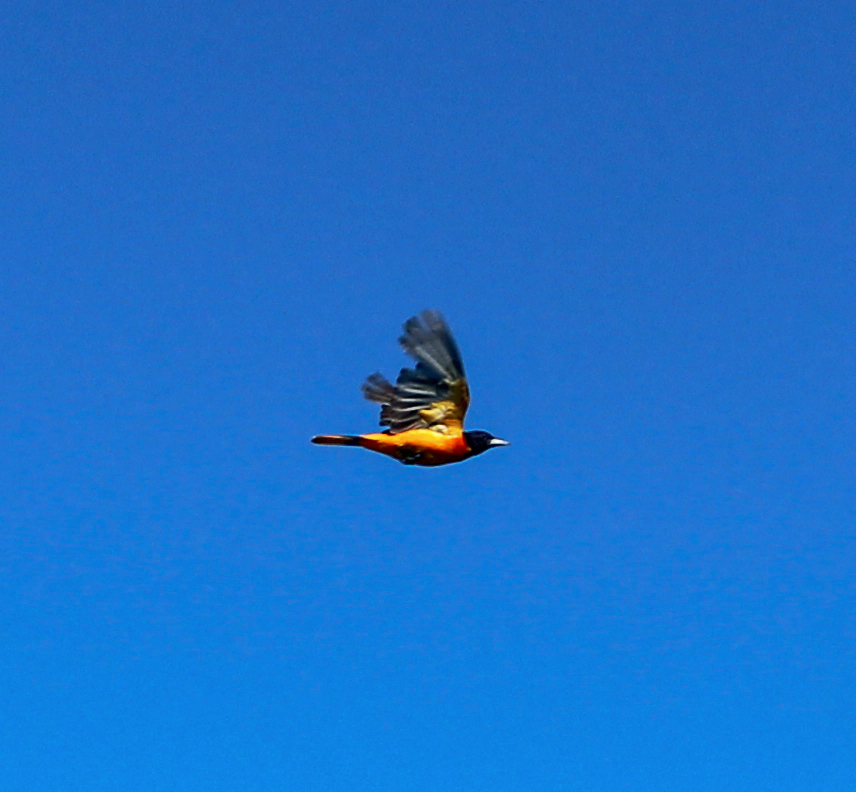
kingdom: Animalia
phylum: Chordata
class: Aves
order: Passeriformes
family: Icteridae
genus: Icterus
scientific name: Icterus galbula
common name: Baltimore oriole
